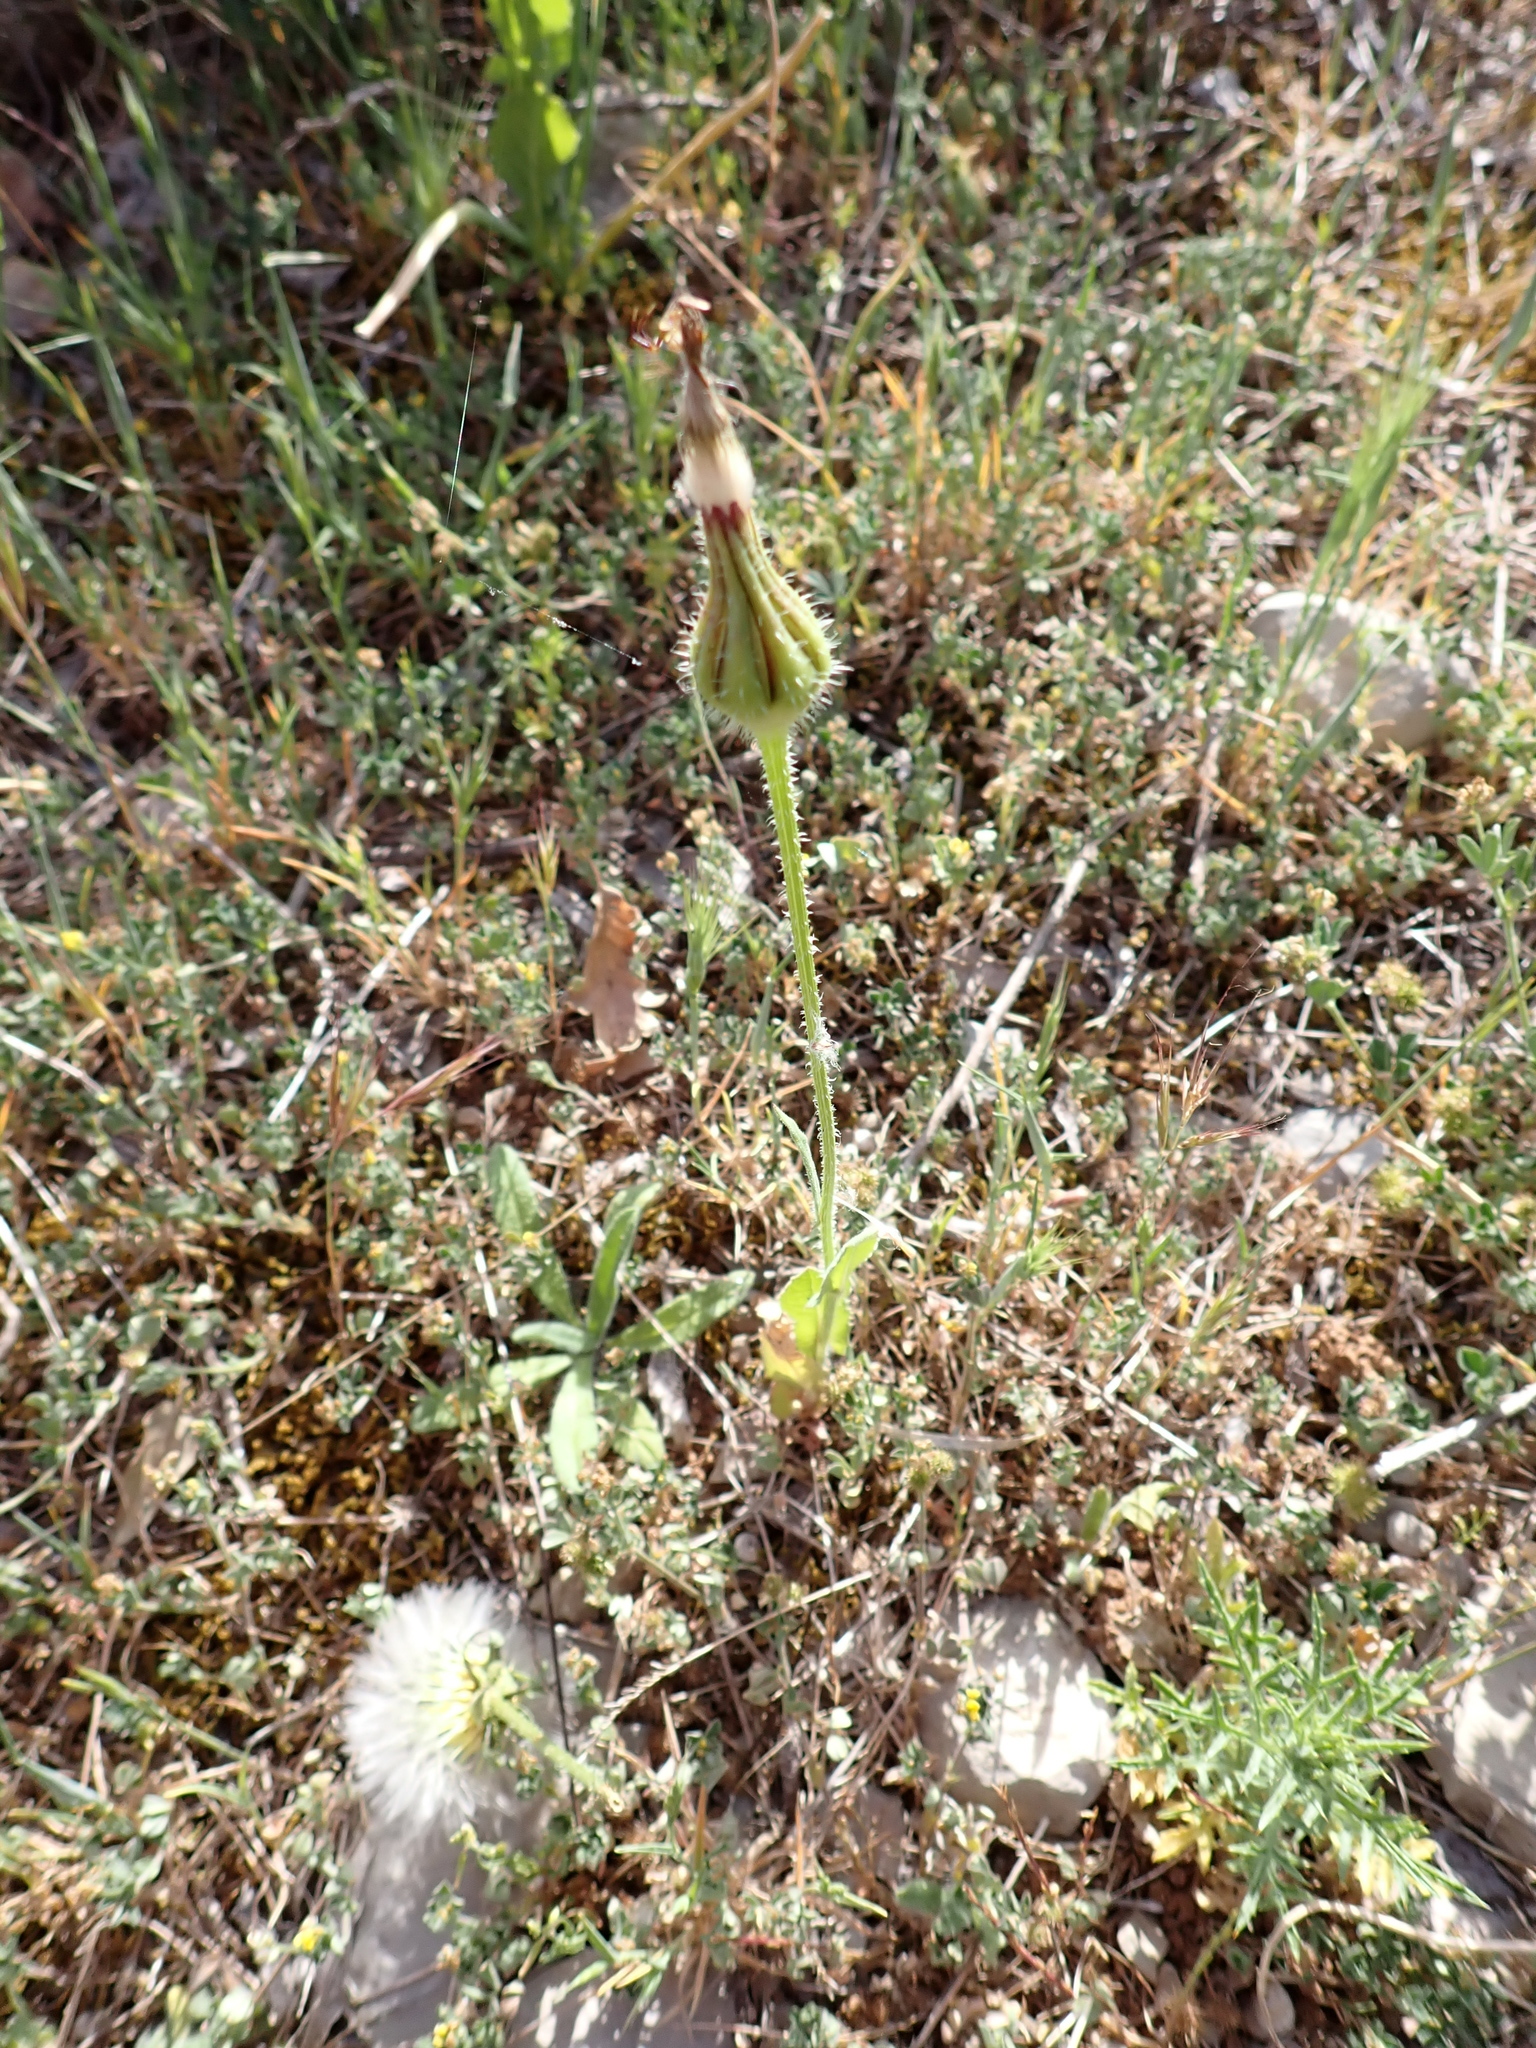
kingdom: Plantae
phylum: Tracheophyta
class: Magnoliopsida
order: Asterales
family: Asteraceae
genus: Urospermum
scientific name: Urospermum picroides
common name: False hawkbit
